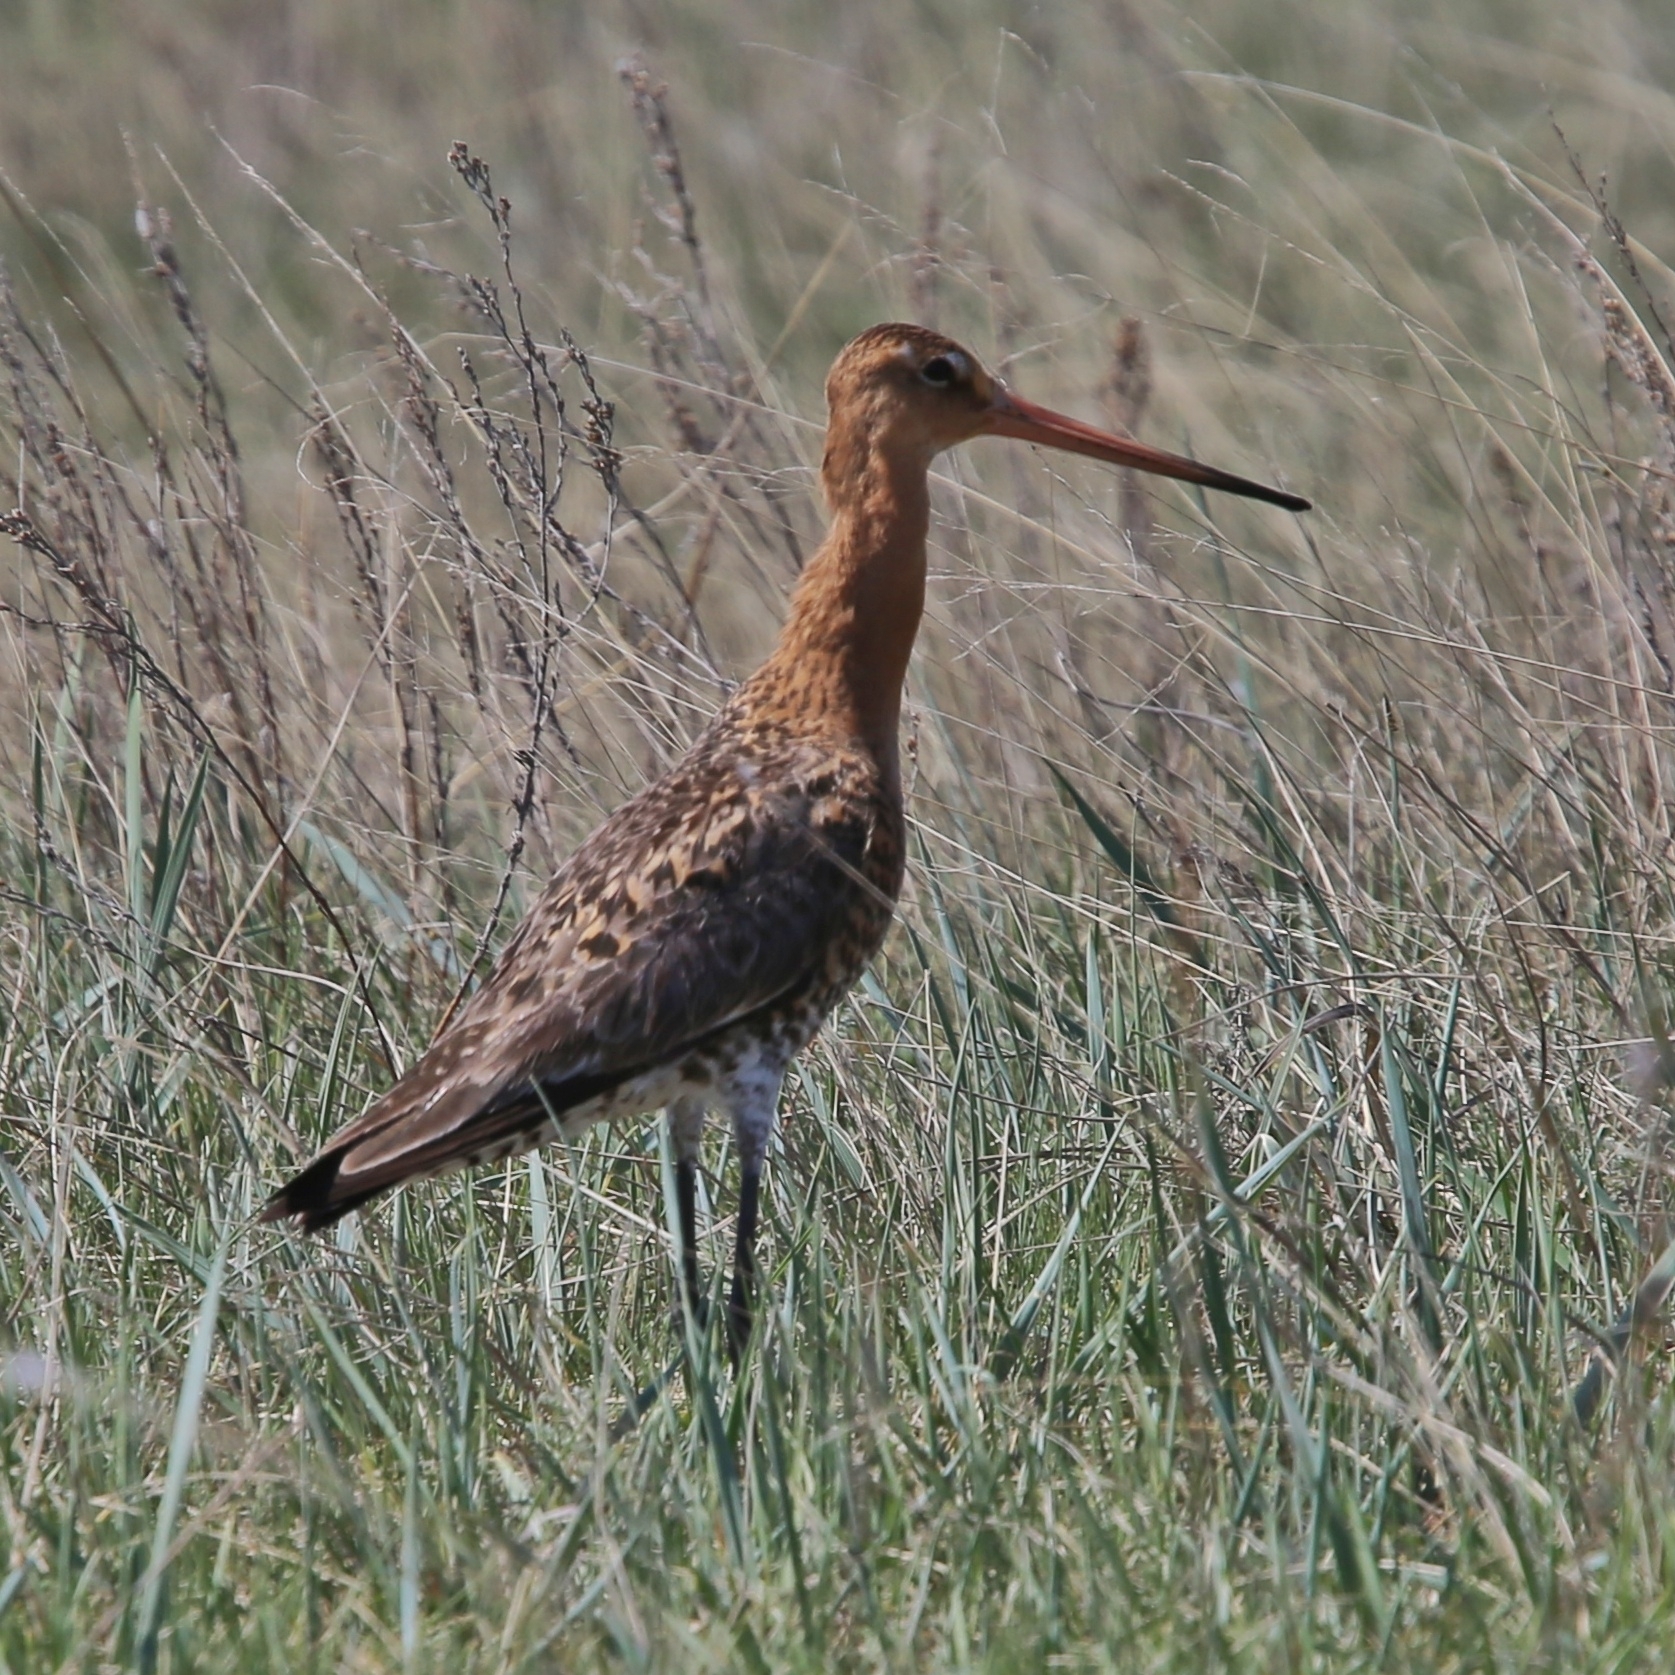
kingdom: Animalia
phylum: Chordata
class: Aves
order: Charadriiformes
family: Scolopacidae
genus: Limosa
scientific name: Limosa limosa
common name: Black-tailed godwit
